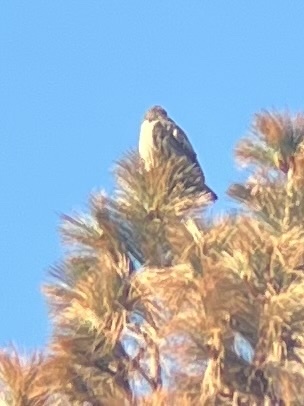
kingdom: Animalia
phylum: Chordata
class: Aves
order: Accipitriformes
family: Accipitridae
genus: Buteo
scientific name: Buteo jamaicensis
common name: Red-tailed hawk
